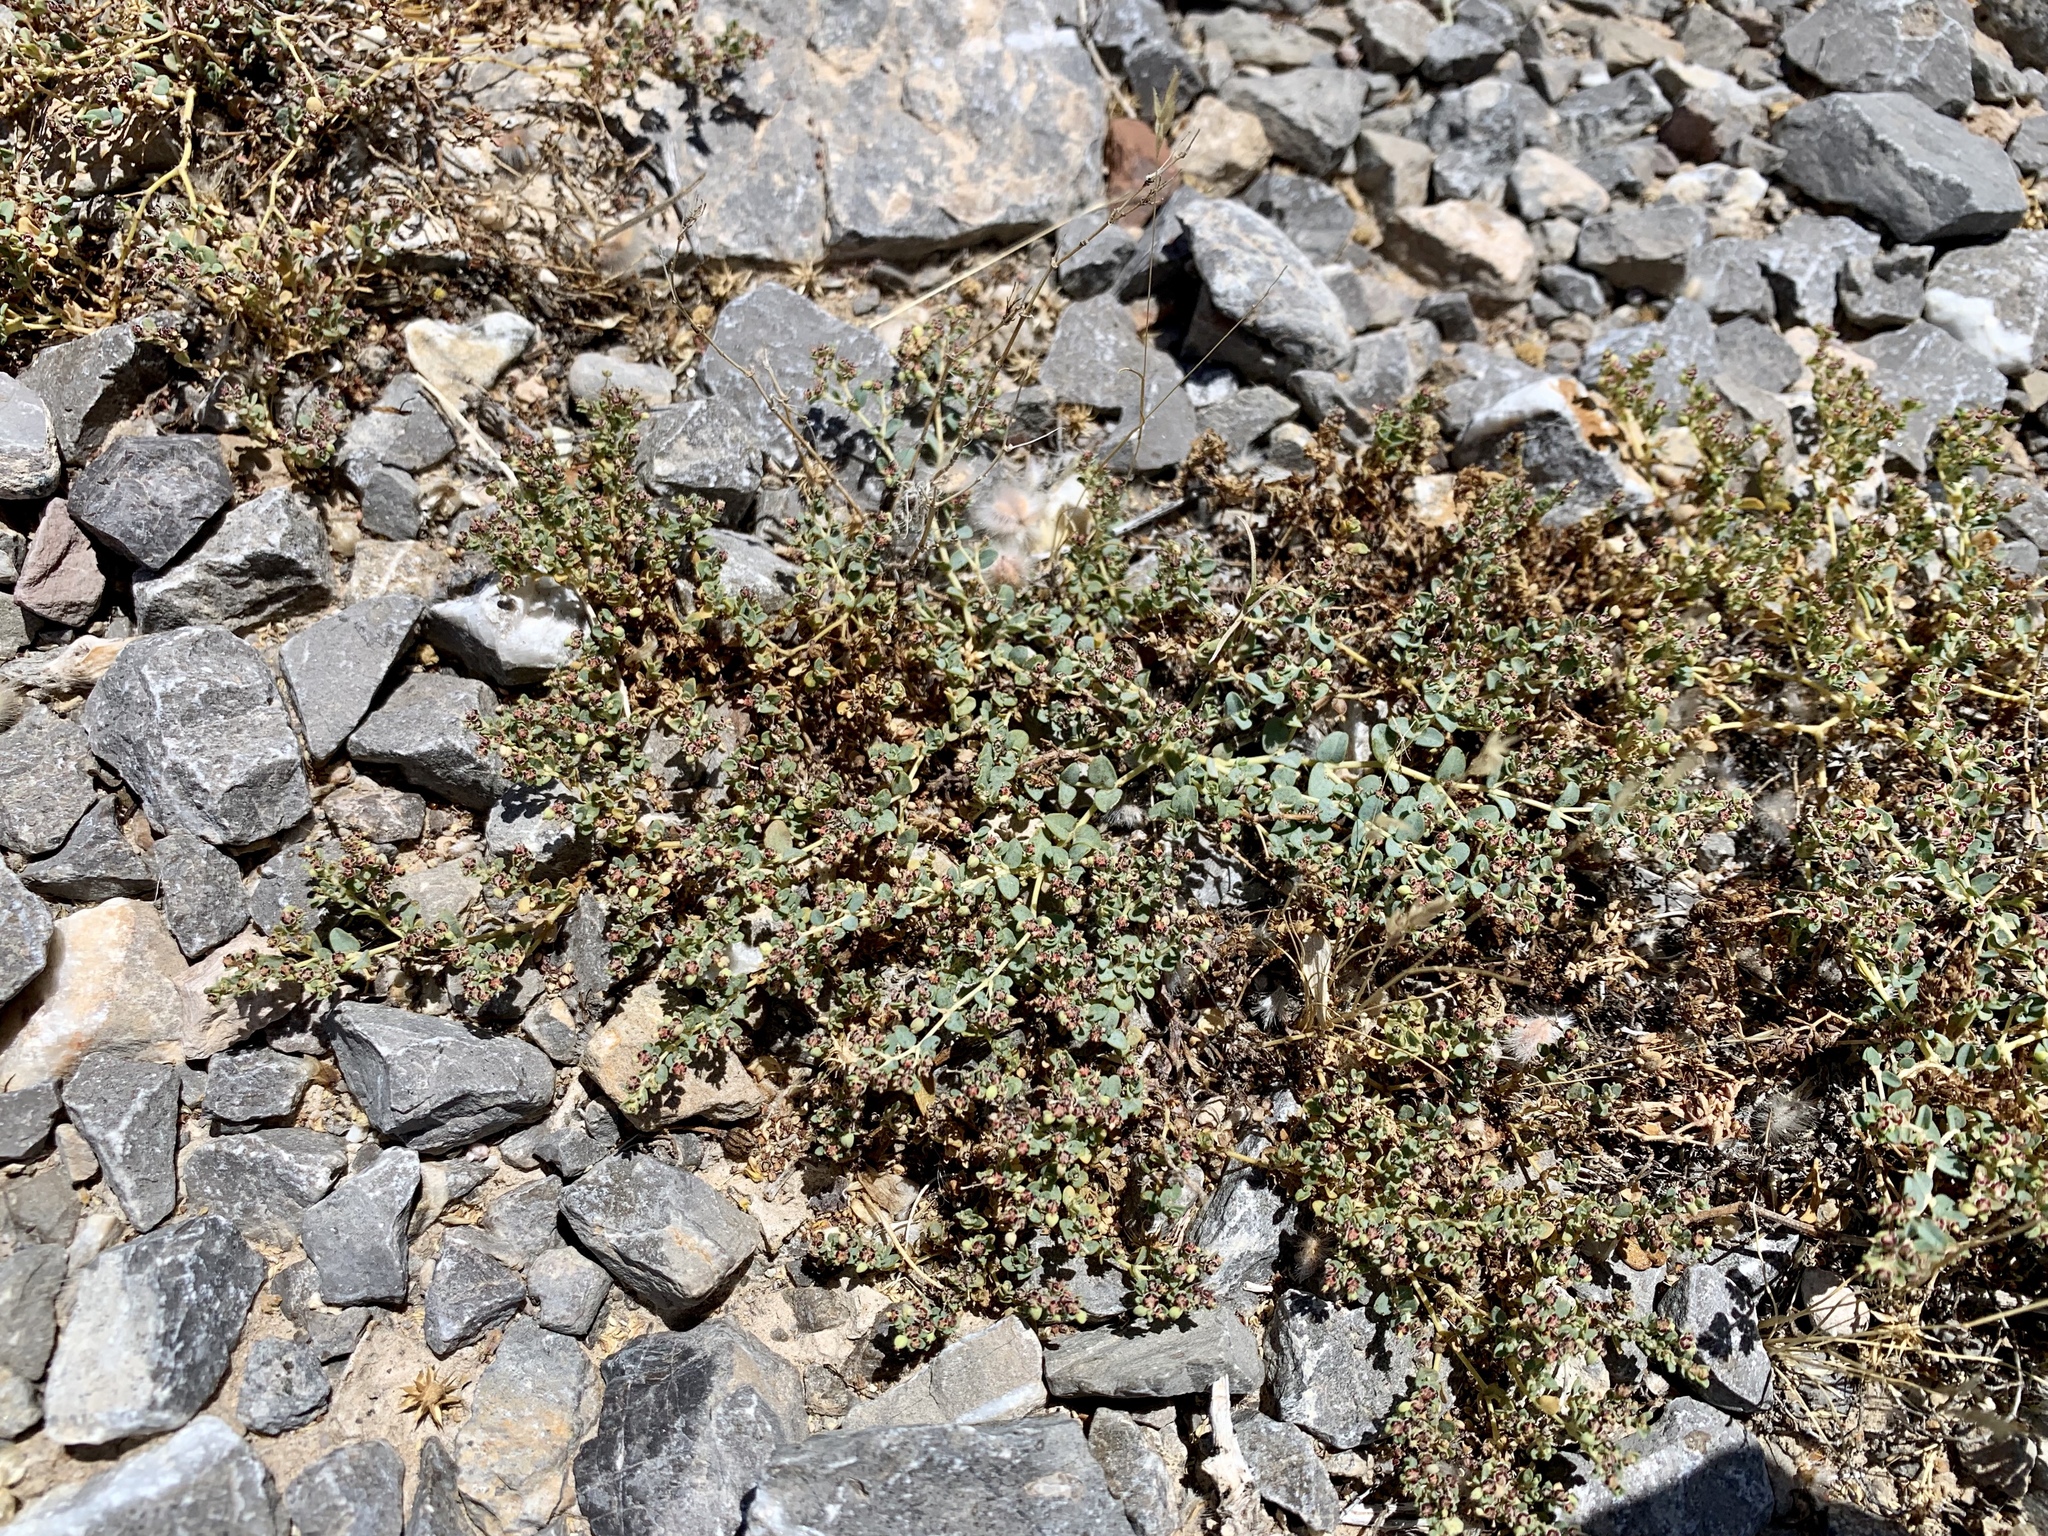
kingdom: Plantae
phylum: Tracheophyta
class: Magnoliopsida
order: Malpighiales
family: Euphorbiaceae
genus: Euphorbia
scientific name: Euphorbia polycarpa
